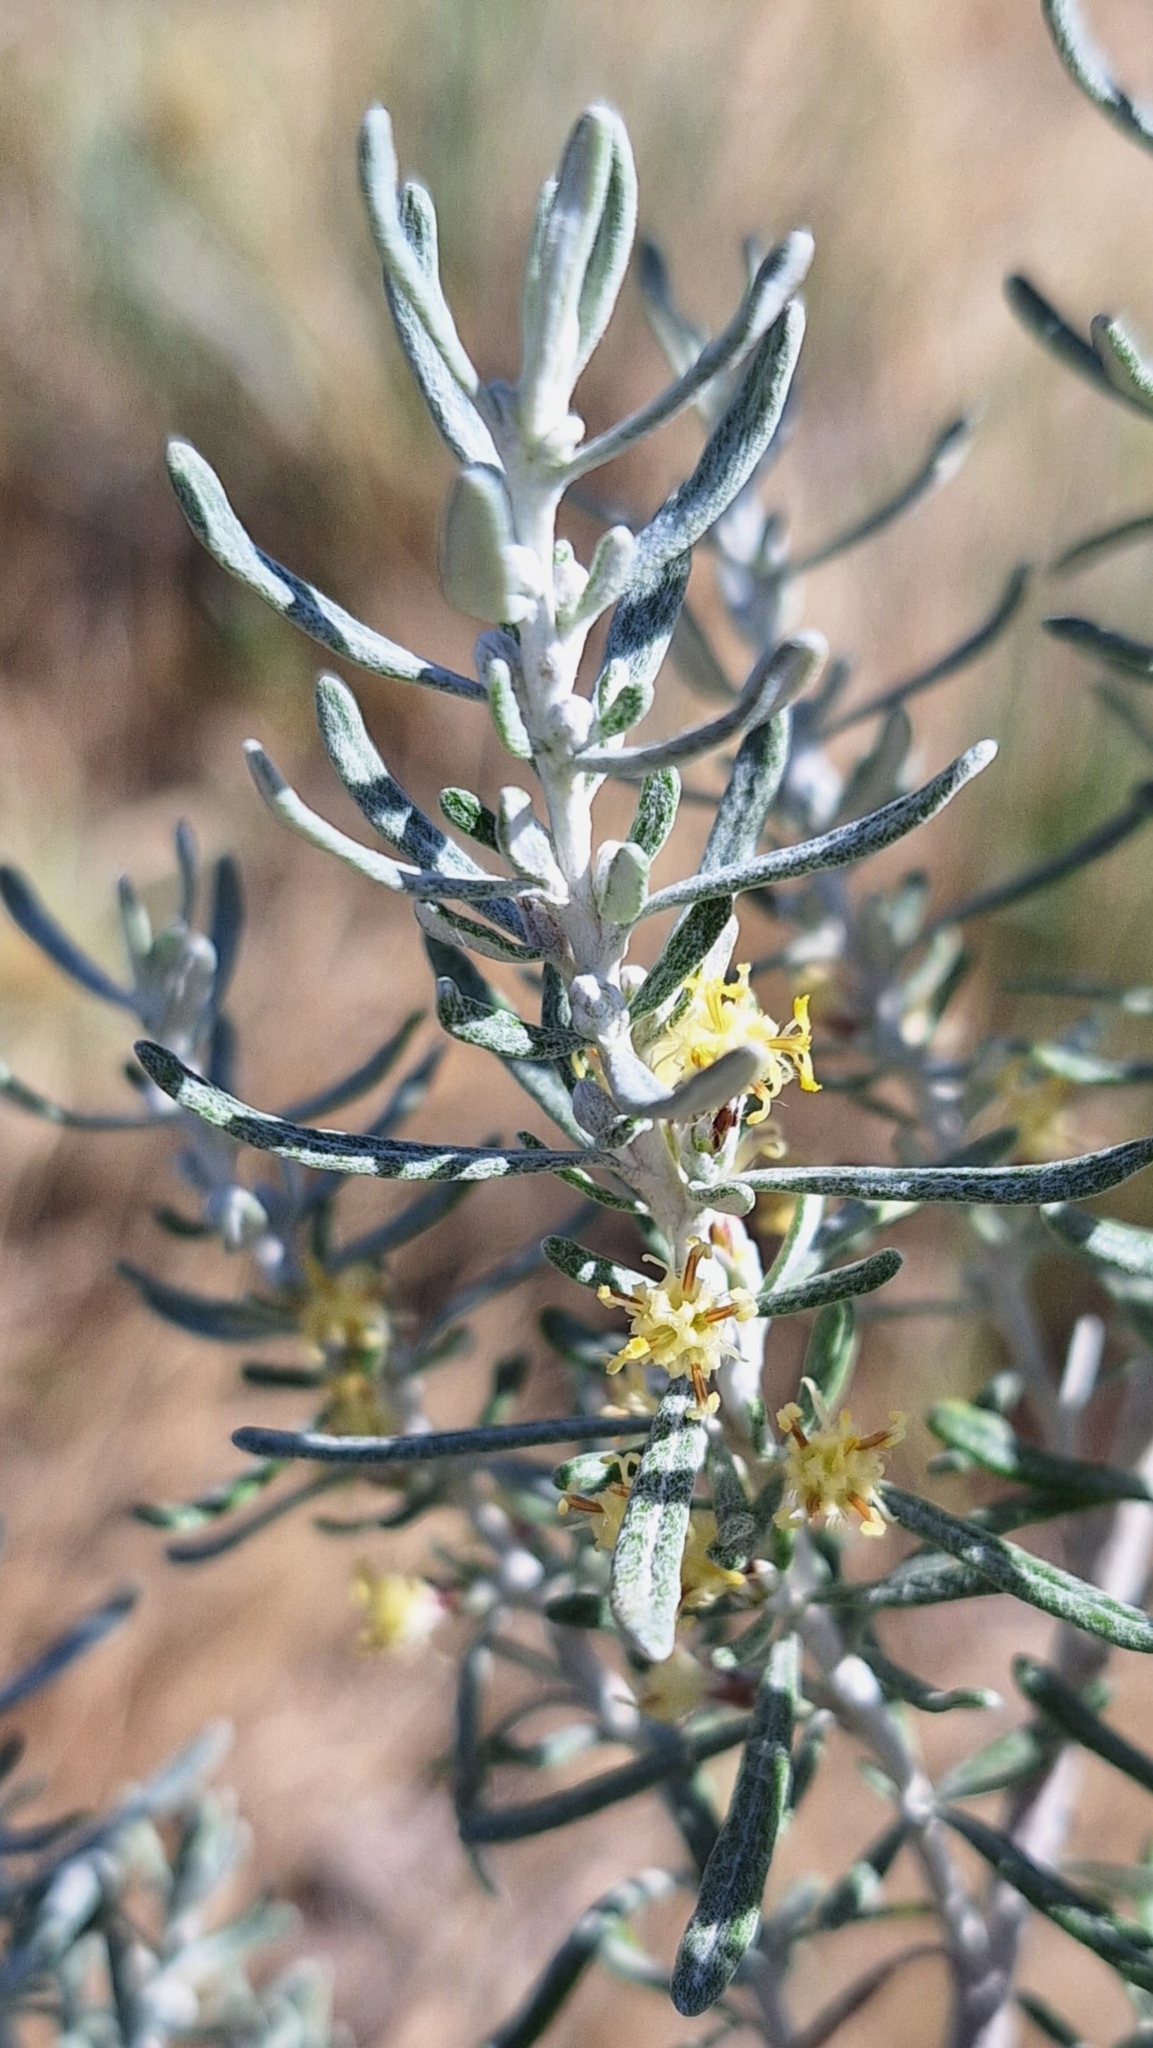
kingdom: Plantae
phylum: Tracheophyta
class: Magnoliopsida
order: Asterales
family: Asteraceae
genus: Olearia
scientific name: Olearia axillaris
